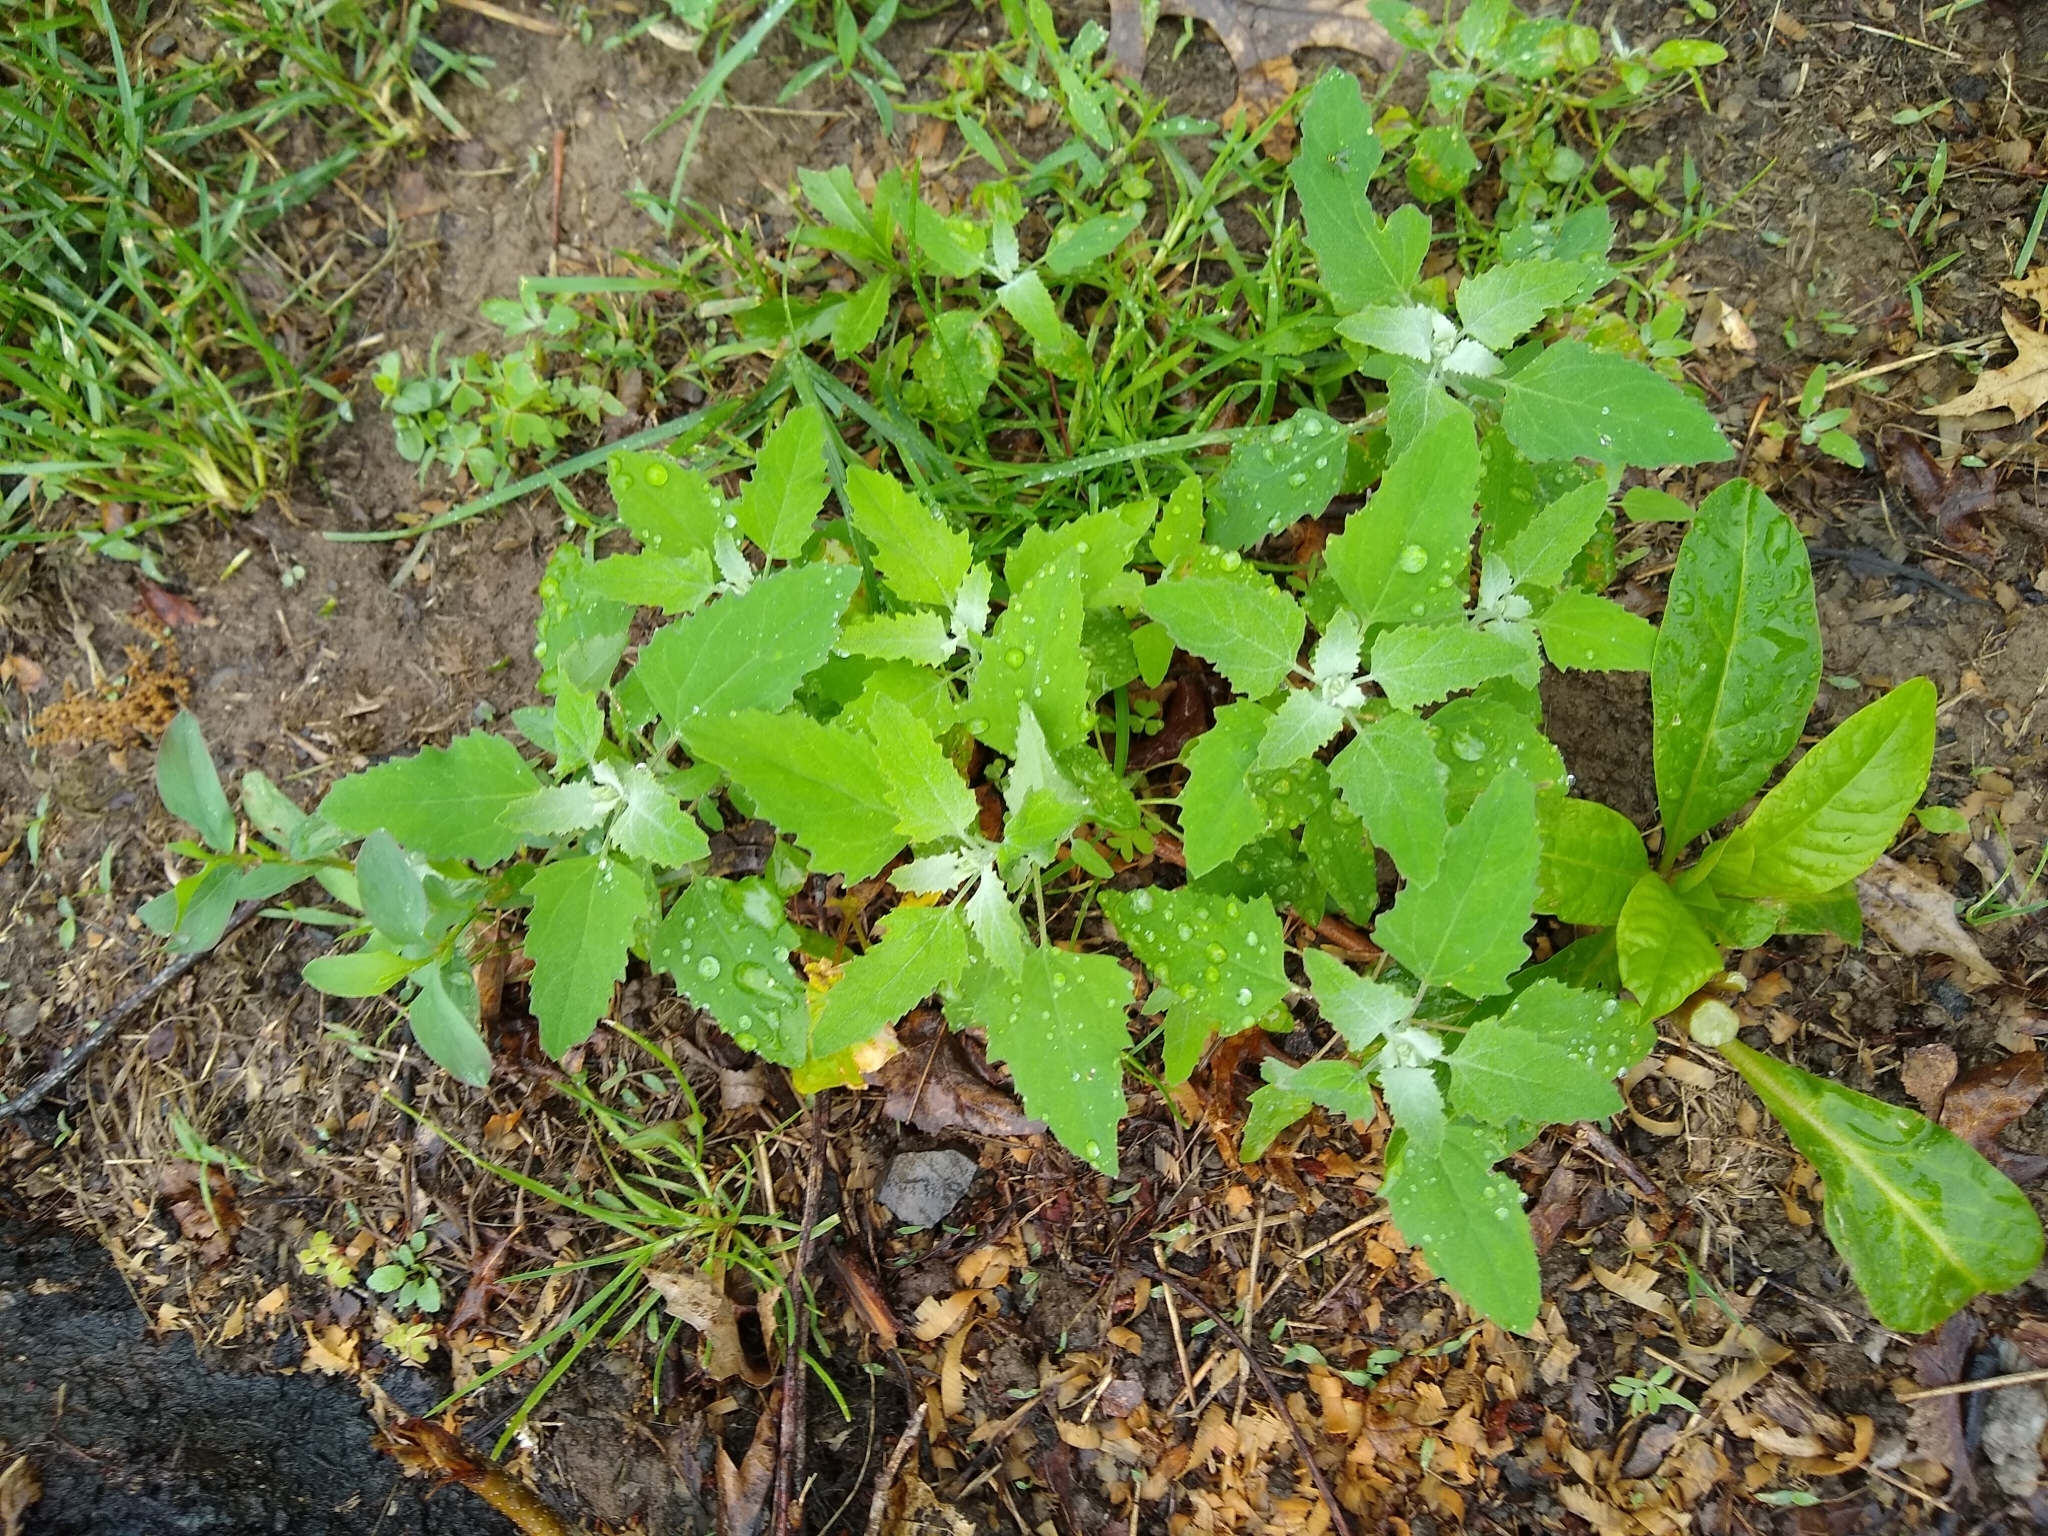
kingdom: Plantae
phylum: Tracheophyta
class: Magnoliopsida
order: Caryophyllales
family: Amaranthaceae
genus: Chenopodium
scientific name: Chenopodium album
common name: Fat-hen
